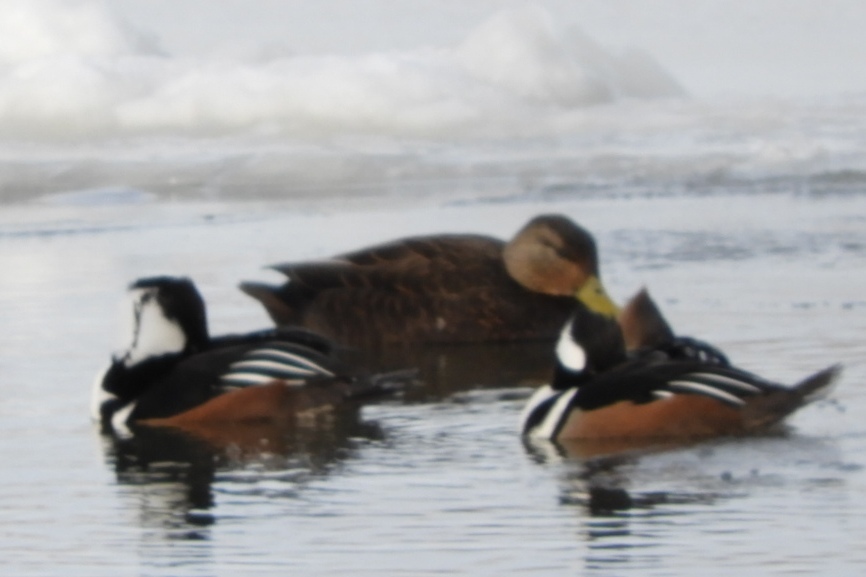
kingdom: Animalia
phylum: Chordata
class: Aves
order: Anseriformes
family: Anatidae
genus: Anas
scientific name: Anas rubripes
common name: American black duck
